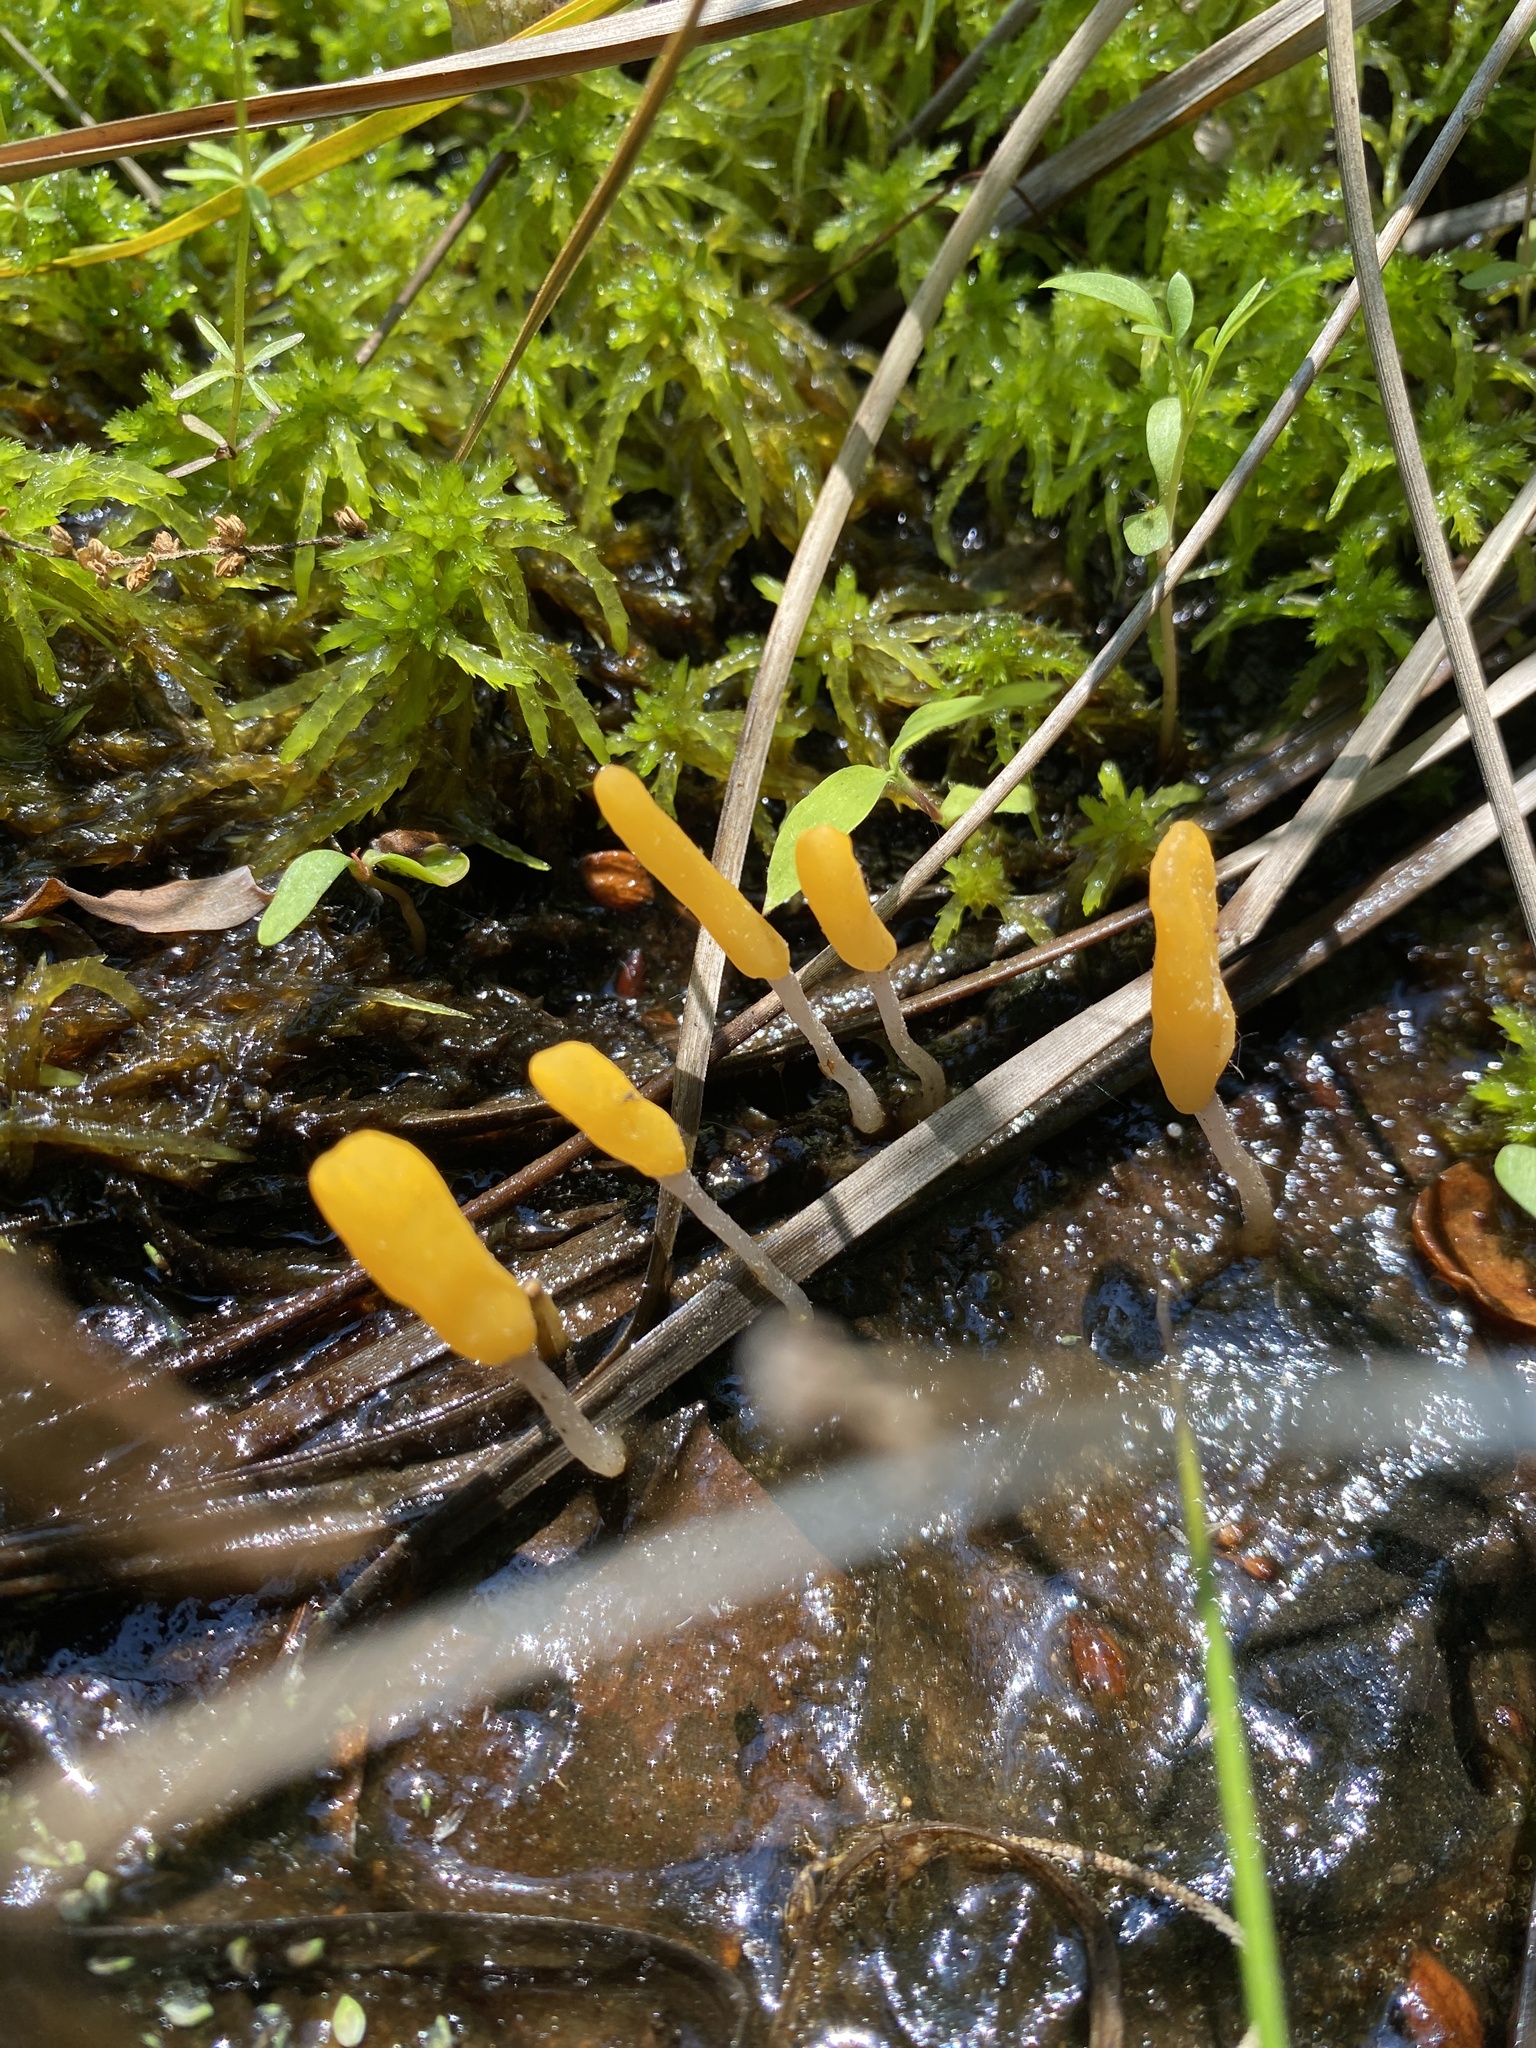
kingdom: Fungi
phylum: Ascomycota
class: Leotiomycetes
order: Helotiales
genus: Mitrula
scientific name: Mitrula lunulatospora
